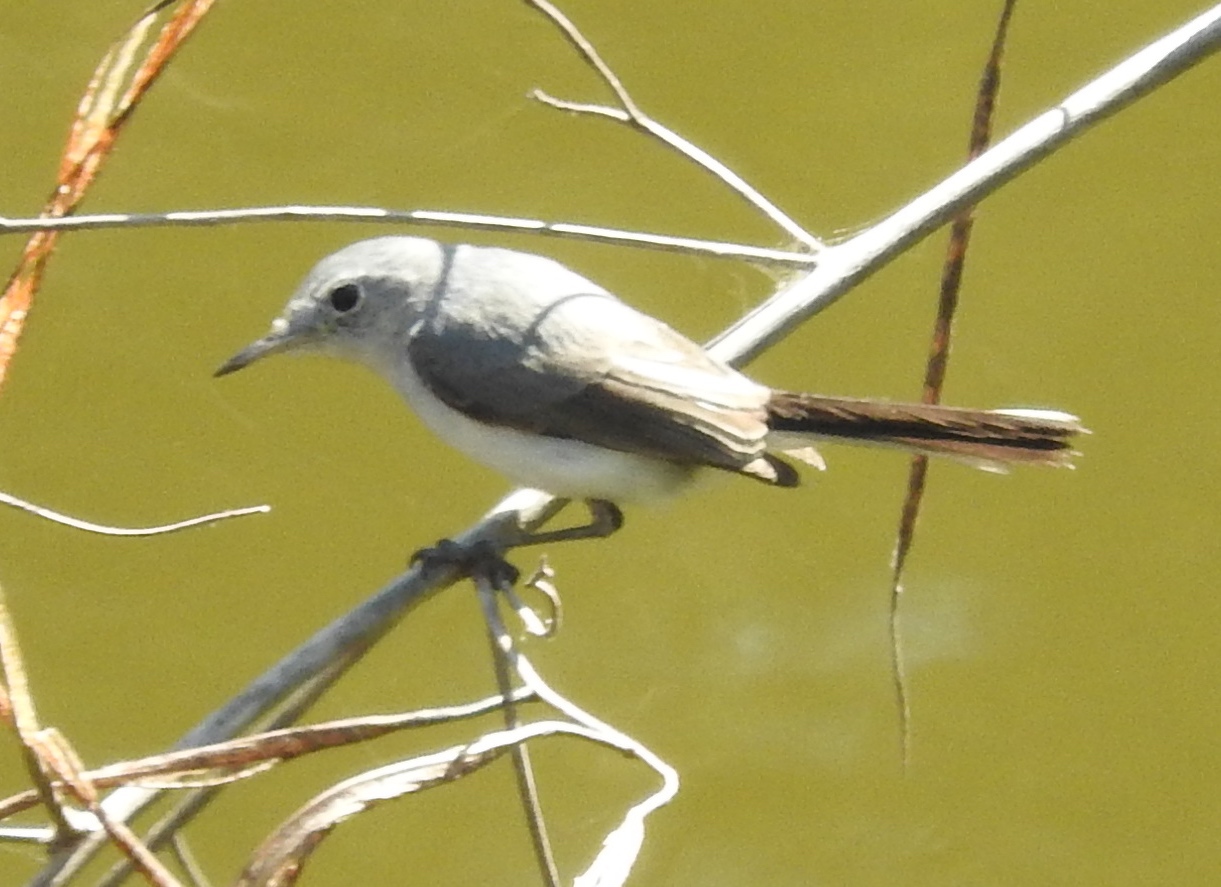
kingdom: Animalia
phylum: Chordata
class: Aves
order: Passeriformes
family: Polioptilidae
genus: Polioptila
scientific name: Polioptila nigriceps
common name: Black-capped gnatcatcher
